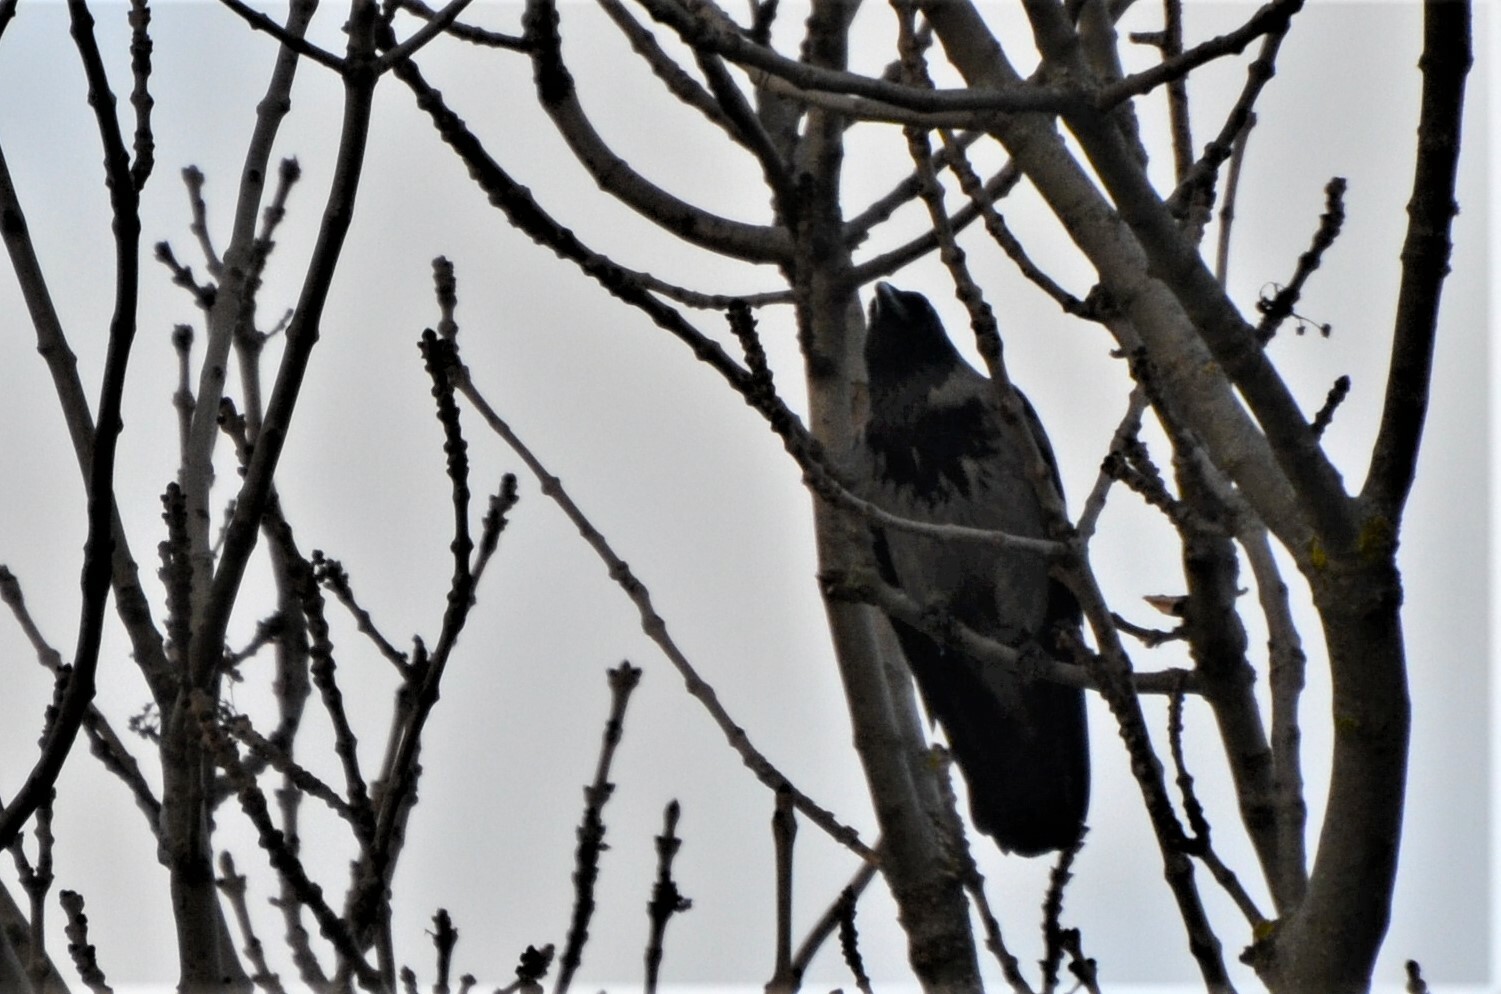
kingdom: Animalia
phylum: Chordata
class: Aves
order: Passeriformes
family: Corvidae
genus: Corvus
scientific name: Corvus
